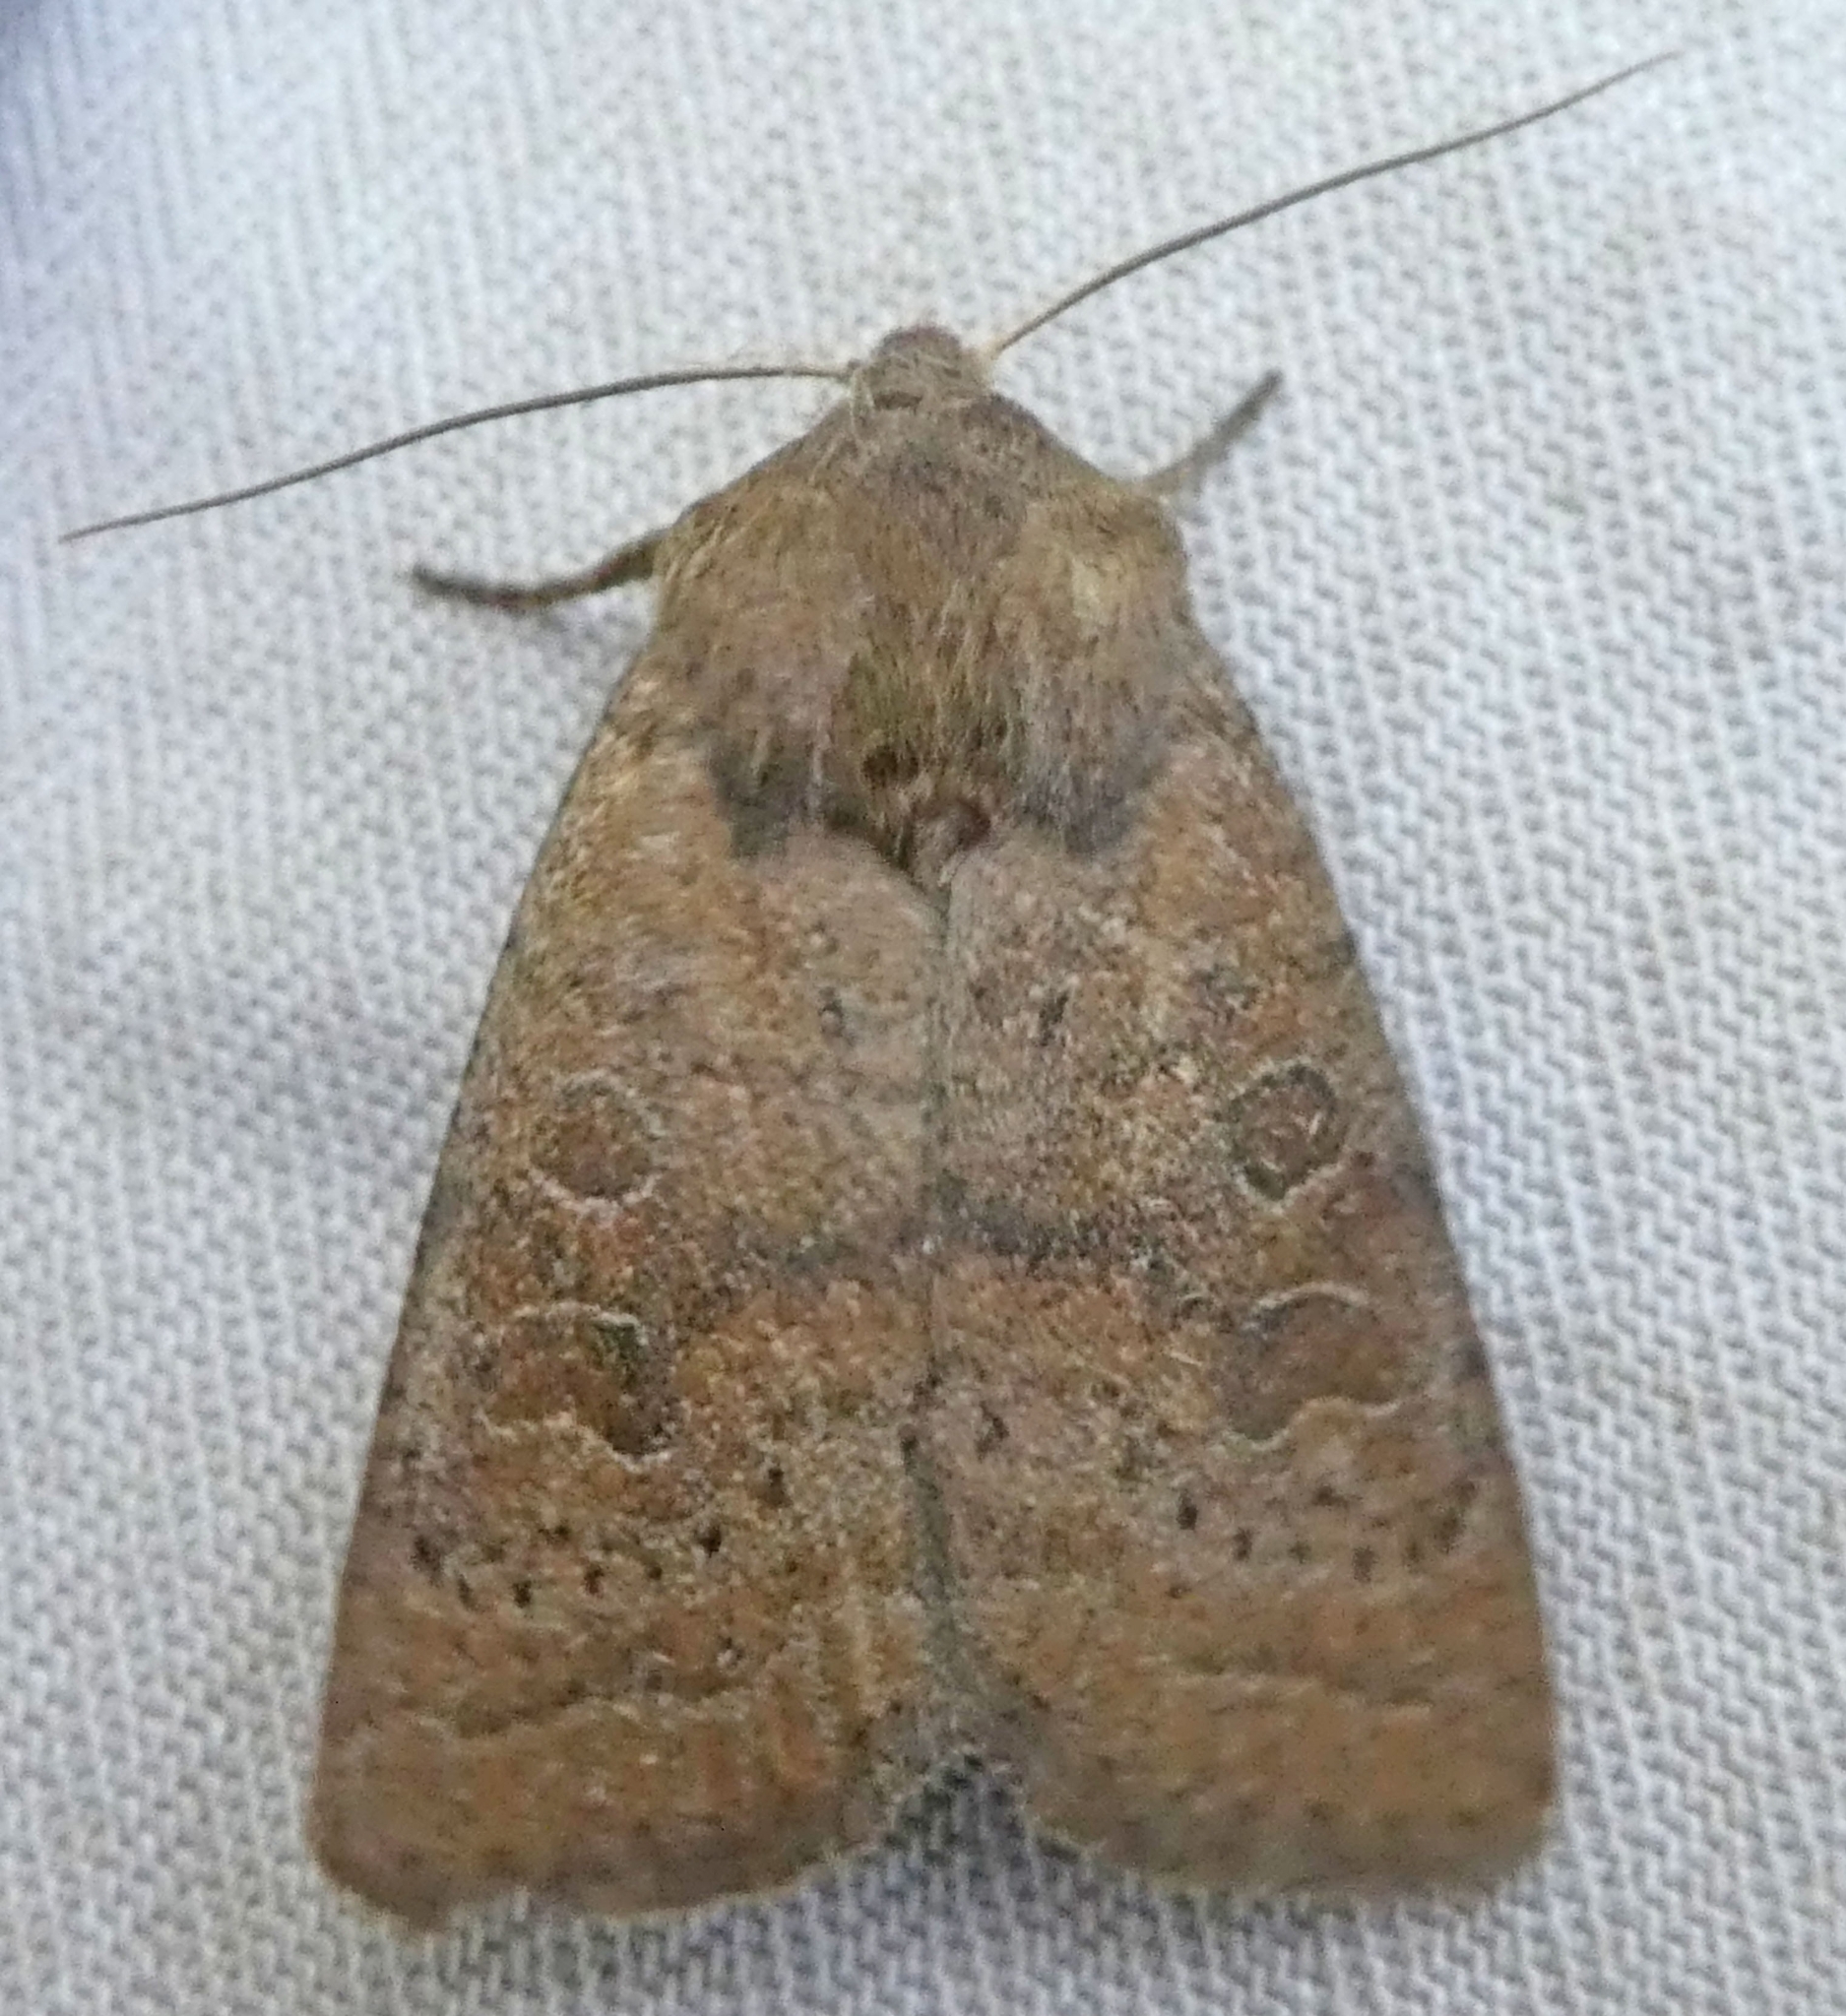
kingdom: Animalia
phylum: Arthropoda
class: Insecta
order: Lepidoptera
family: Noctuidae
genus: Hoplodrina
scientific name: Hoplodrina octogenaria
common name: Uncertain
